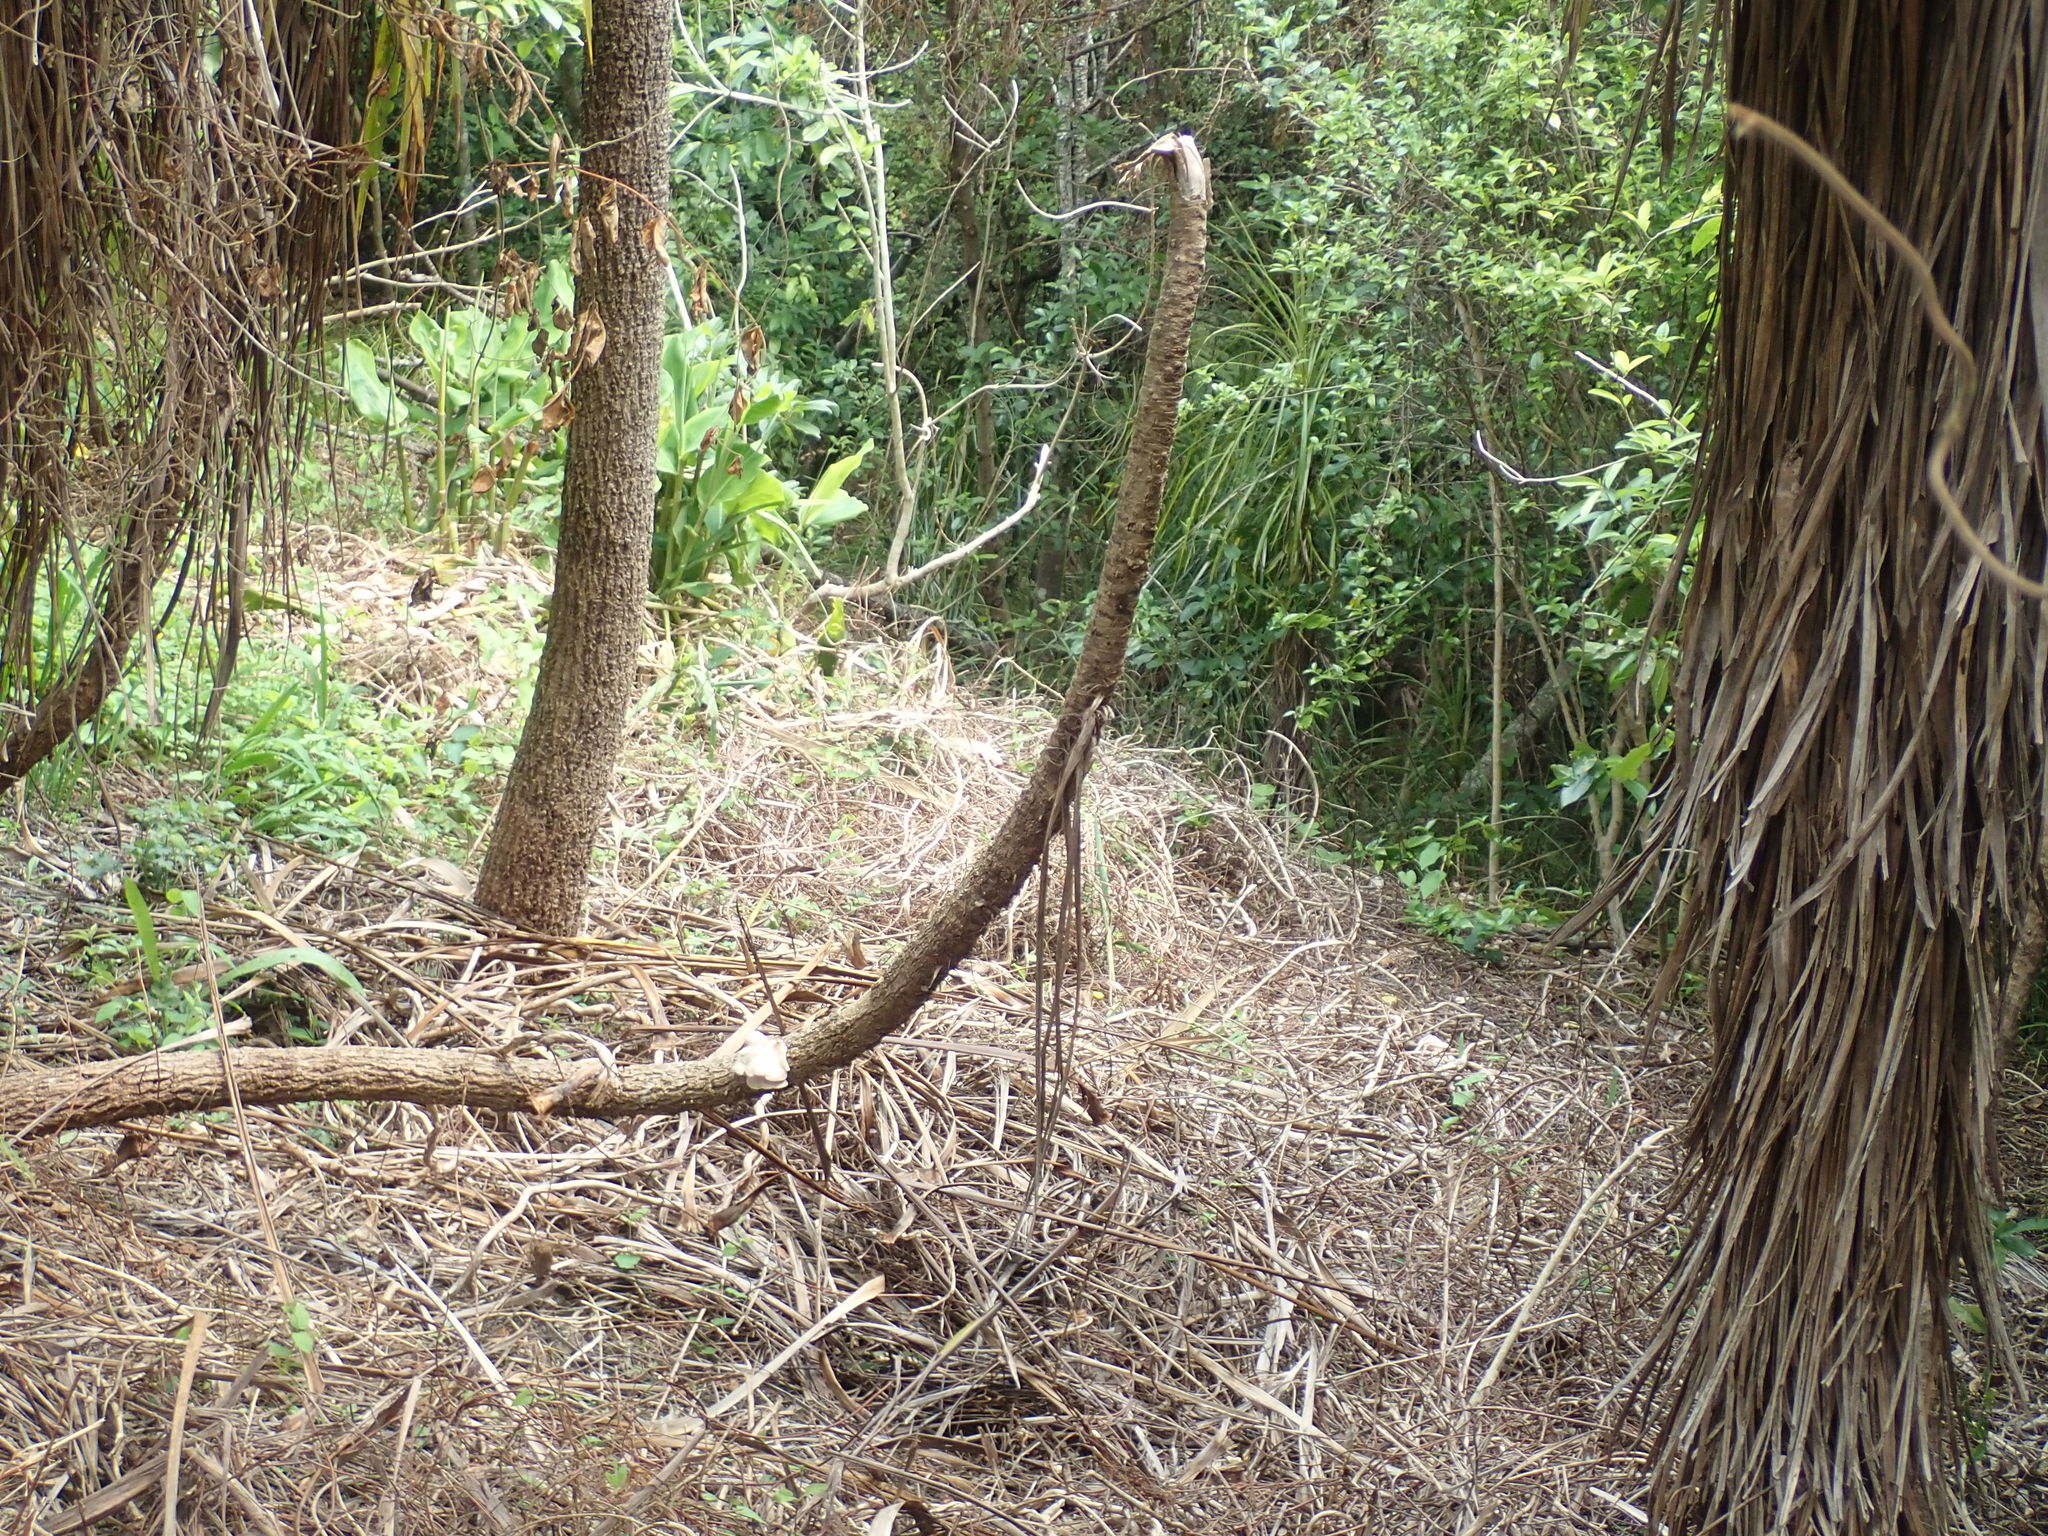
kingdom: Plantae
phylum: Tracheophyta
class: Liliopsida
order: Asparagales
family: Asparagaceae
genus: Cordyline
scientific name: Cordyline australis
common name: Cabbage-palm
